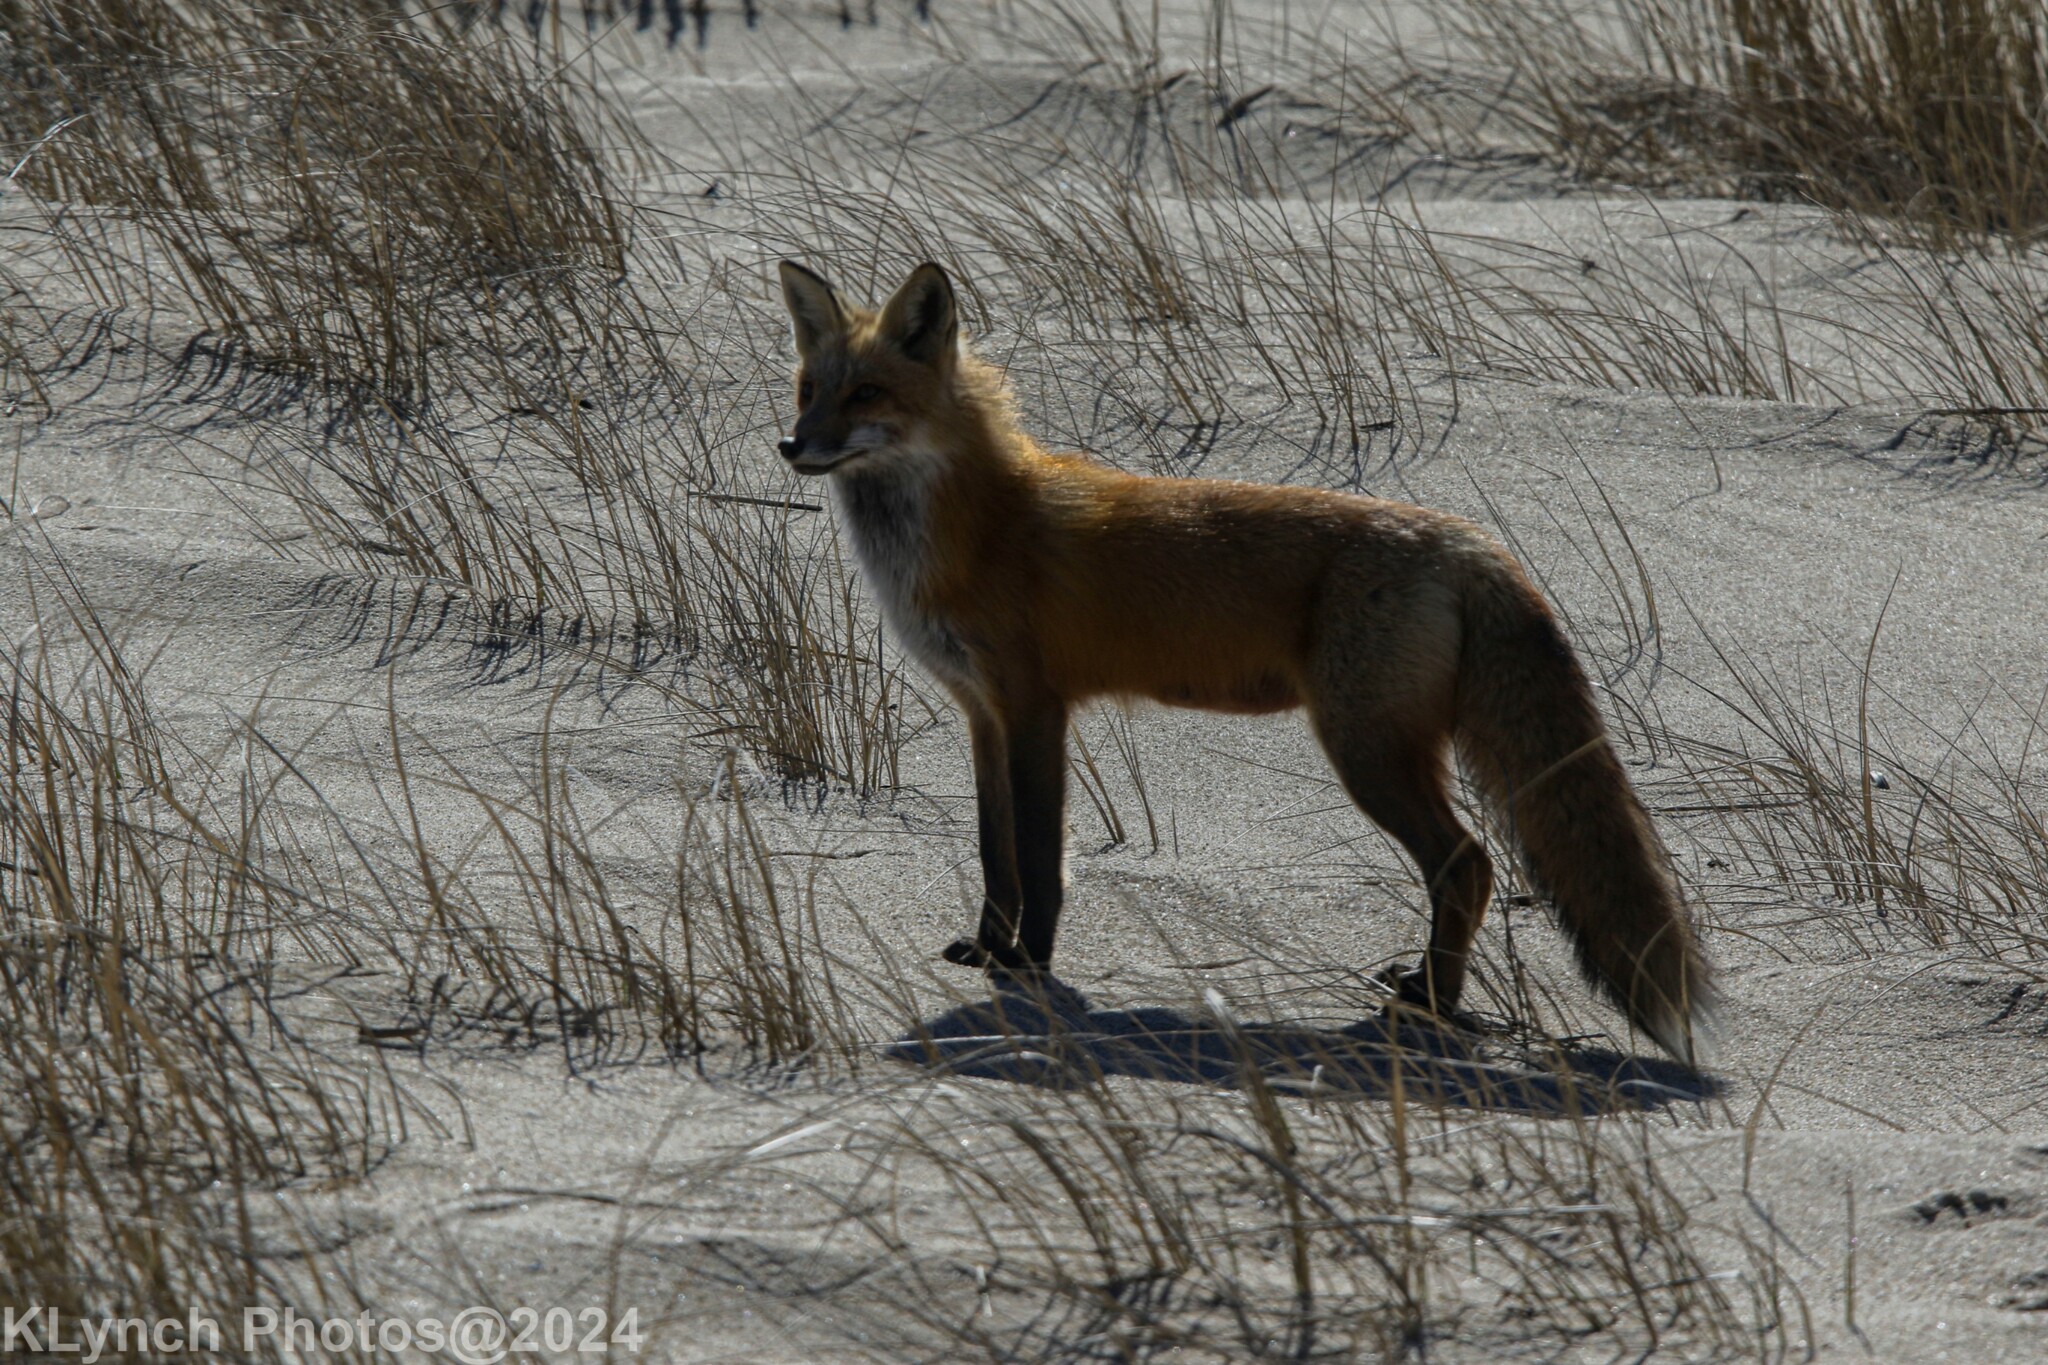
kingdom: Animalia
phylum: Chordata
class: Mammalia
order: Carnivora
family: Canidae
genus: Vulpes
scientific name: Vulpes vulpes
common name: Red fox
